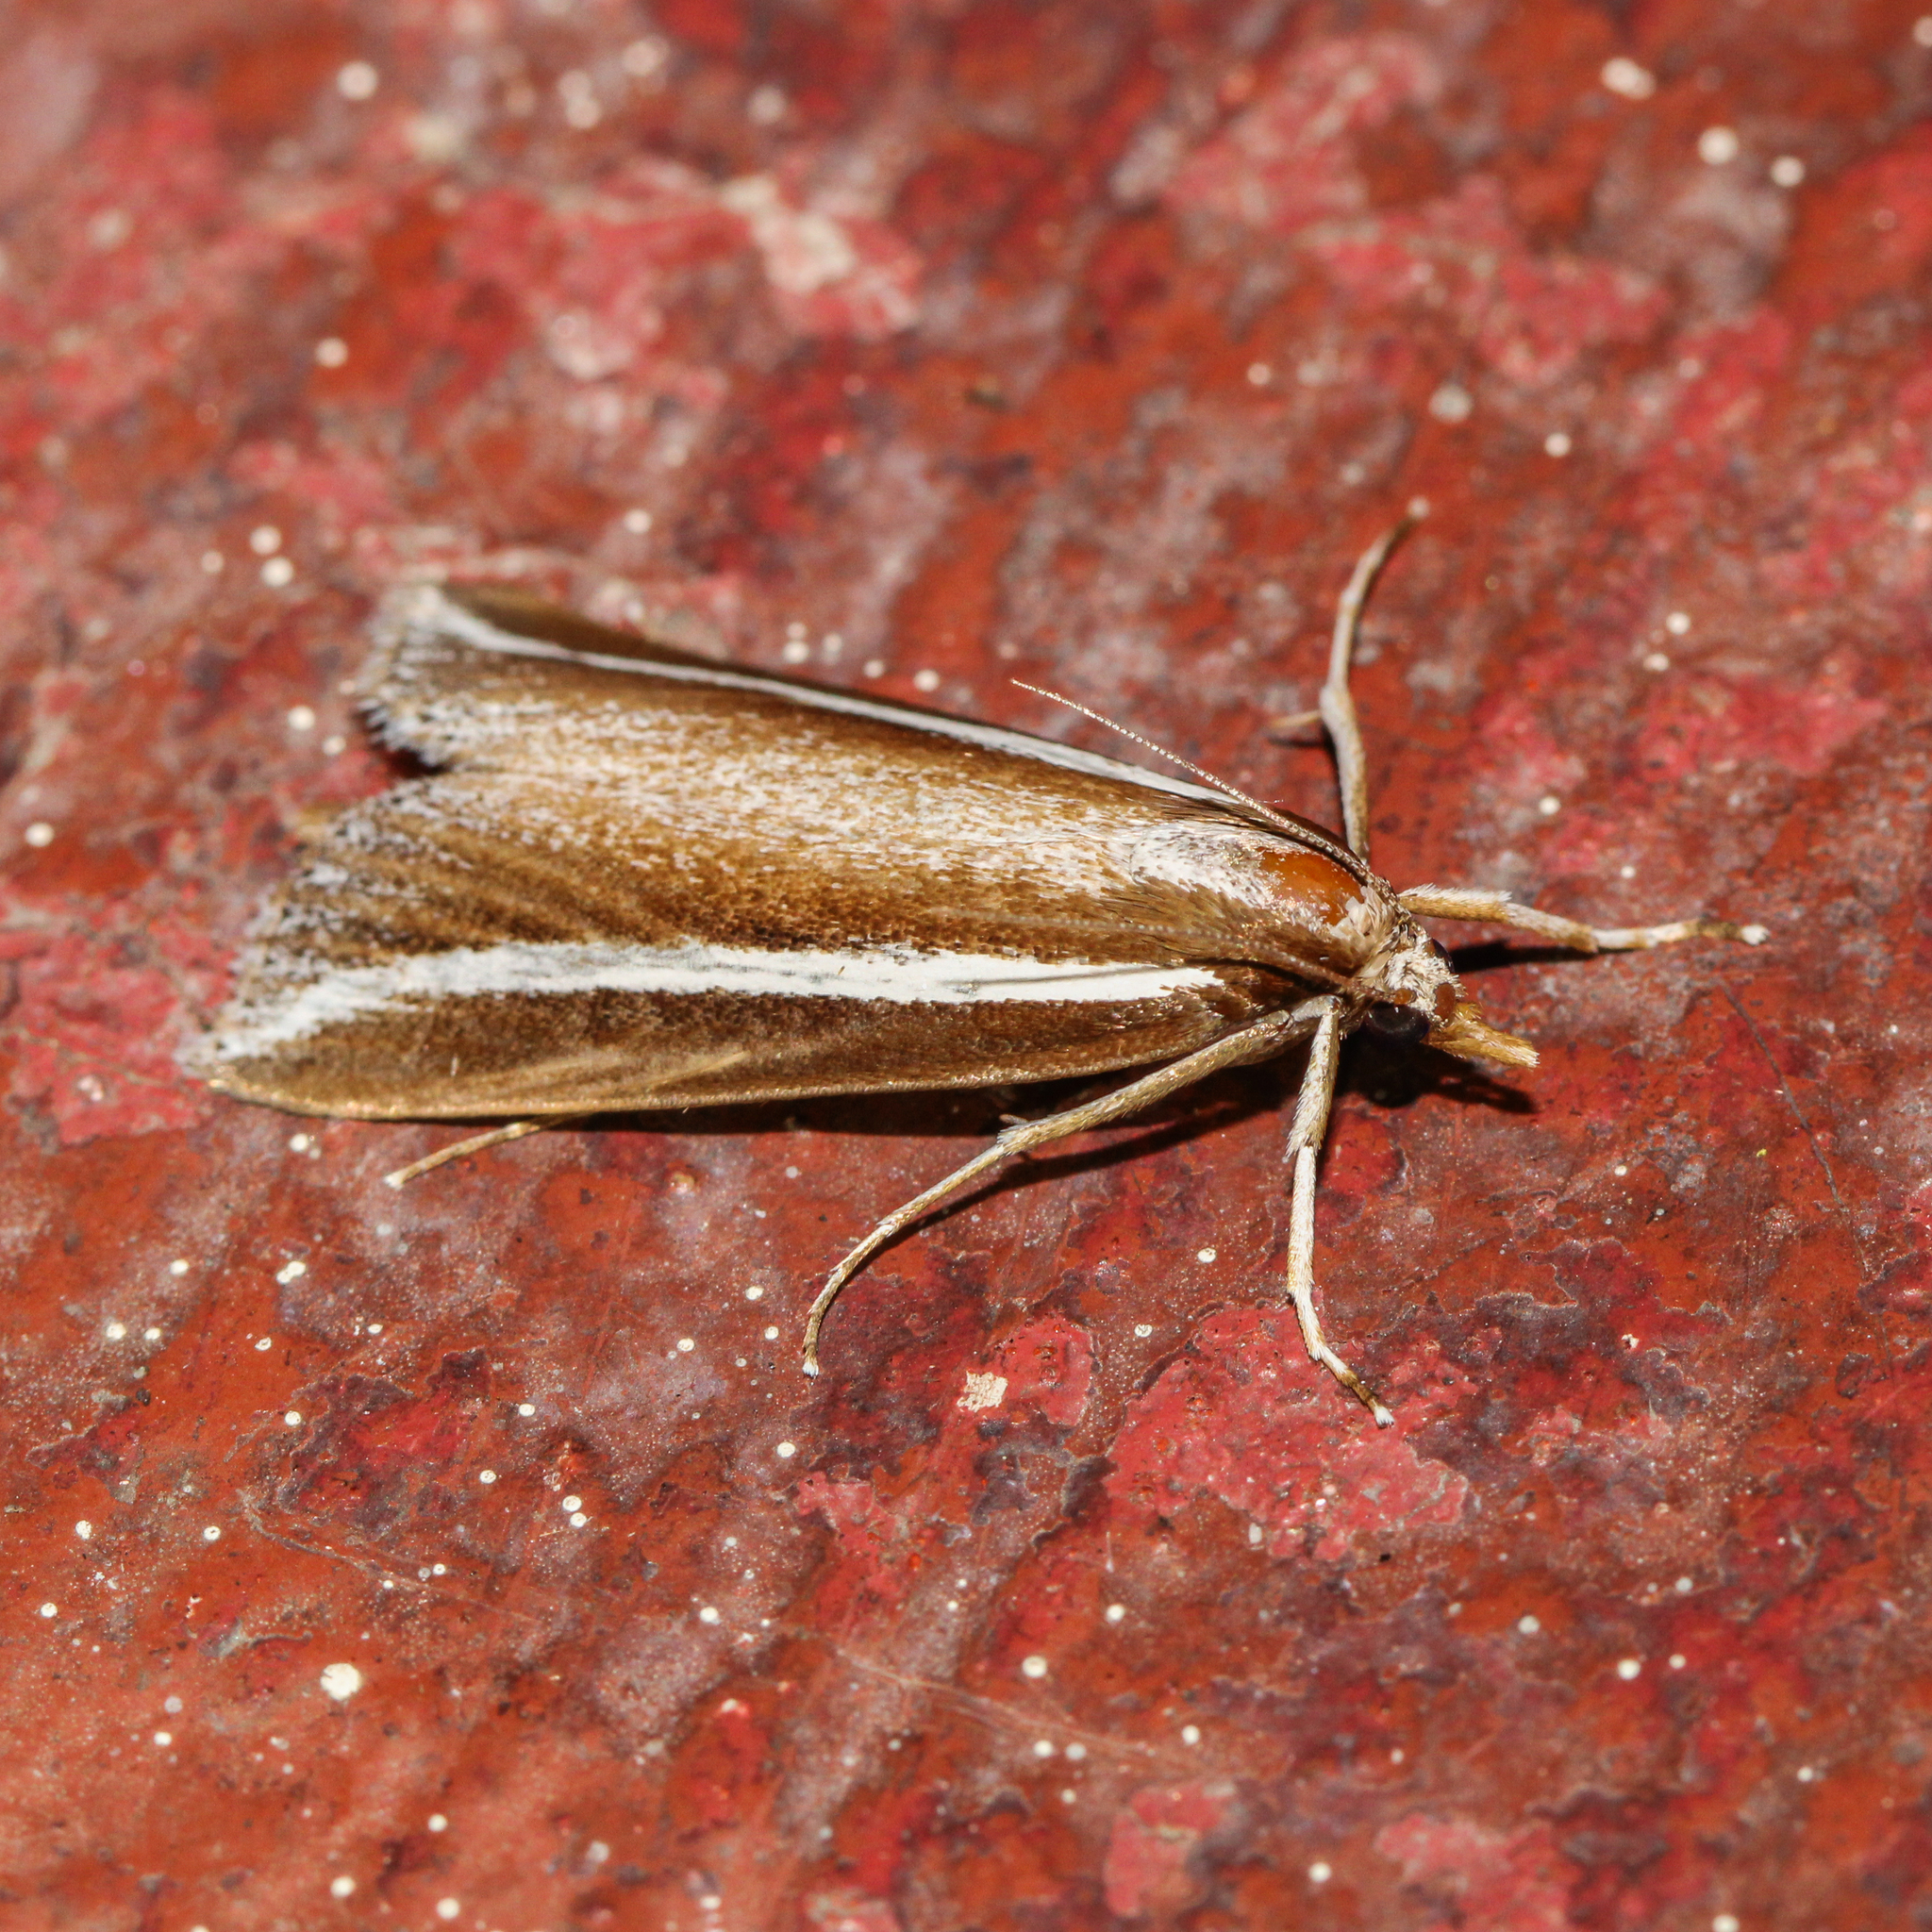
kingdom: Animalia
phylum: Arthropoda
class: Insecta
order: Lepidoptera
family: Crambidae
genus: Carectocultus
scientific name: Carectocultus perstrialis
